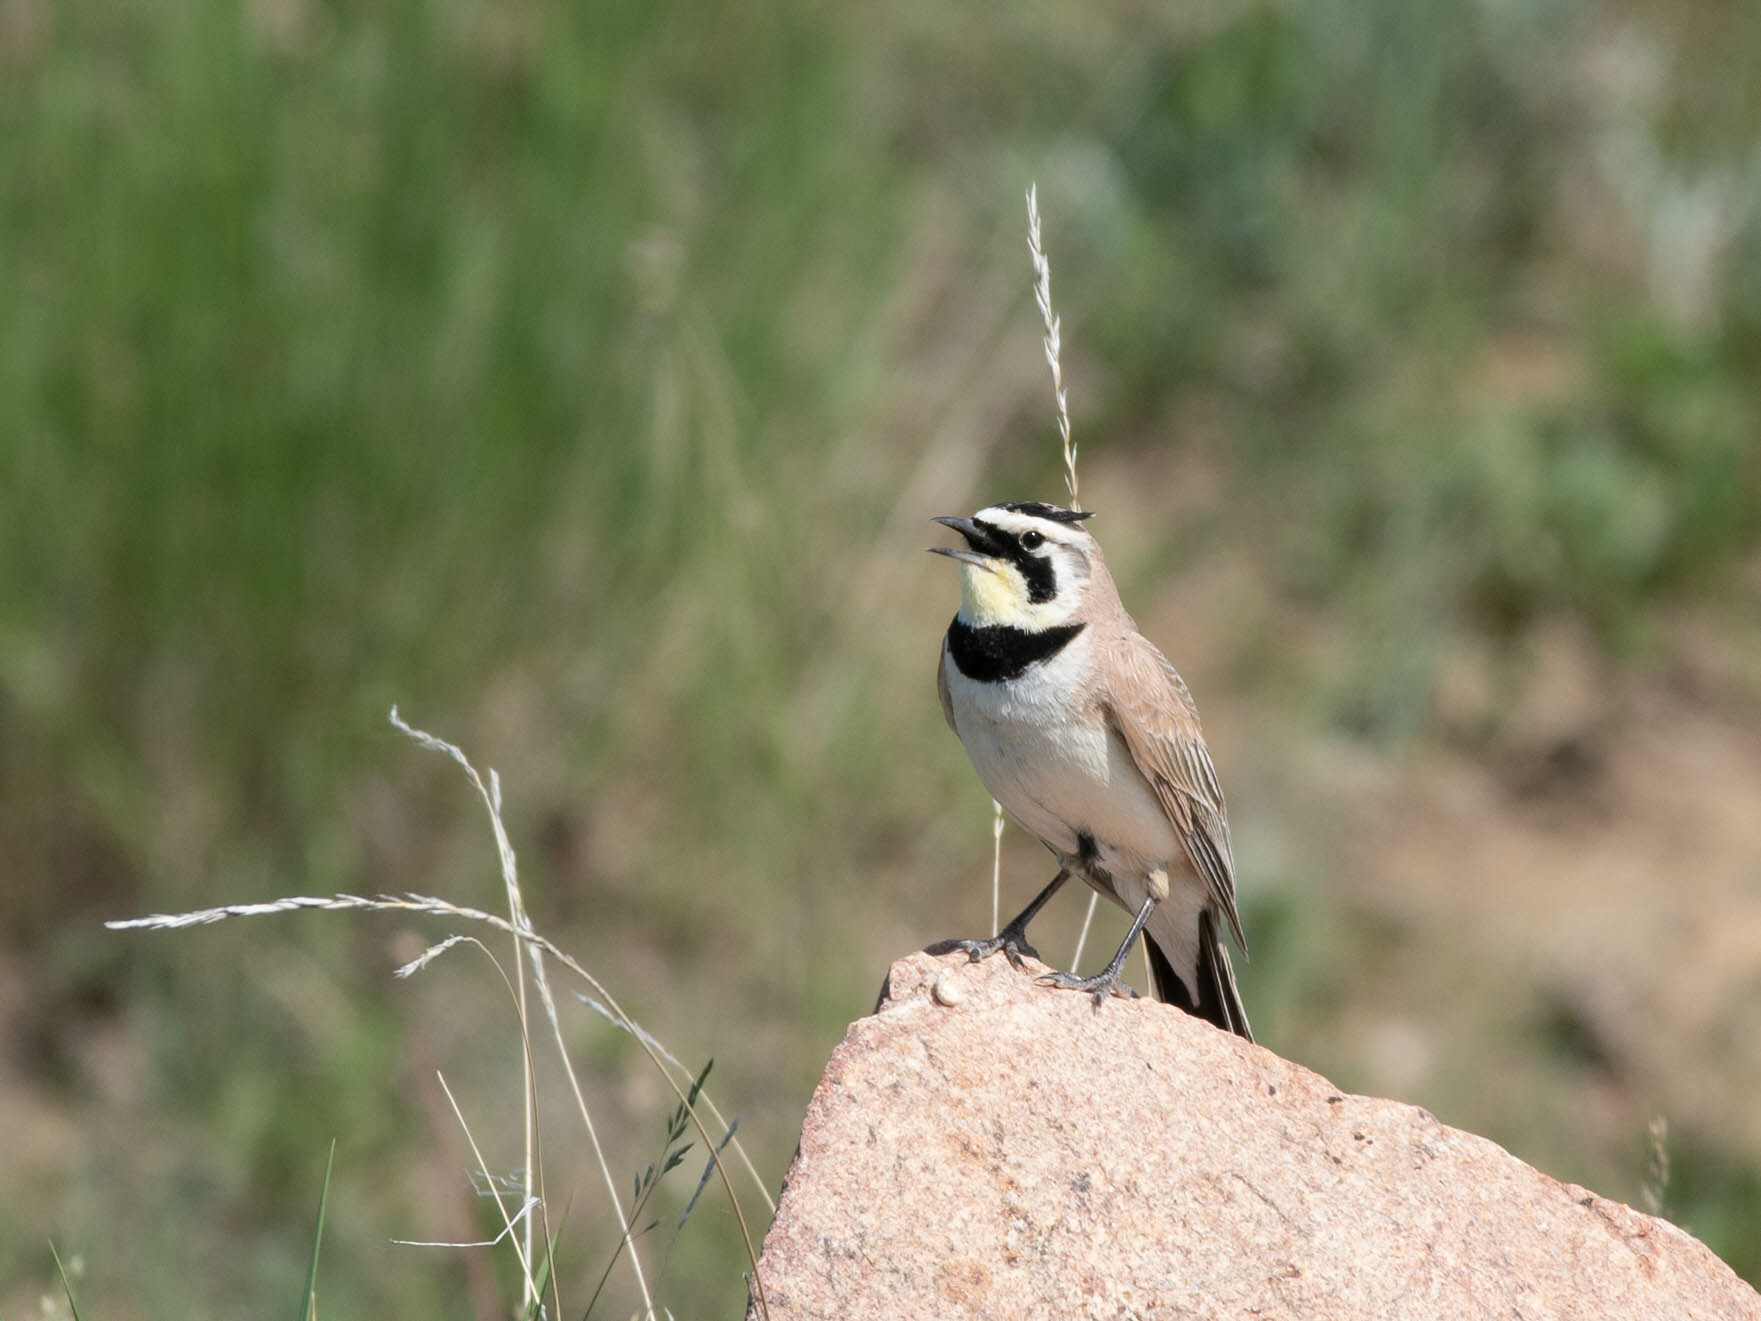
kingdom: Animalia
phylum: Chordata
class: Aves
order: Passeriformes
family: Alaudidae
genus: Eremophila
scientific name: Eremophila alpestris
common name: Horned lark
